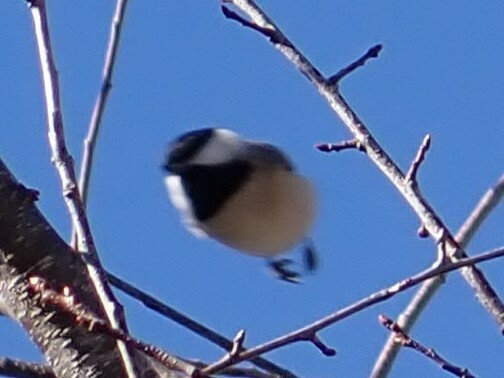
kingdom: Animalia
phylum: Chordata
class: Aves
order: Passeriformes
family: Paridae
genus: Poecile
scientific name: Poecile carolinensis
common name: Carolina chickadee
